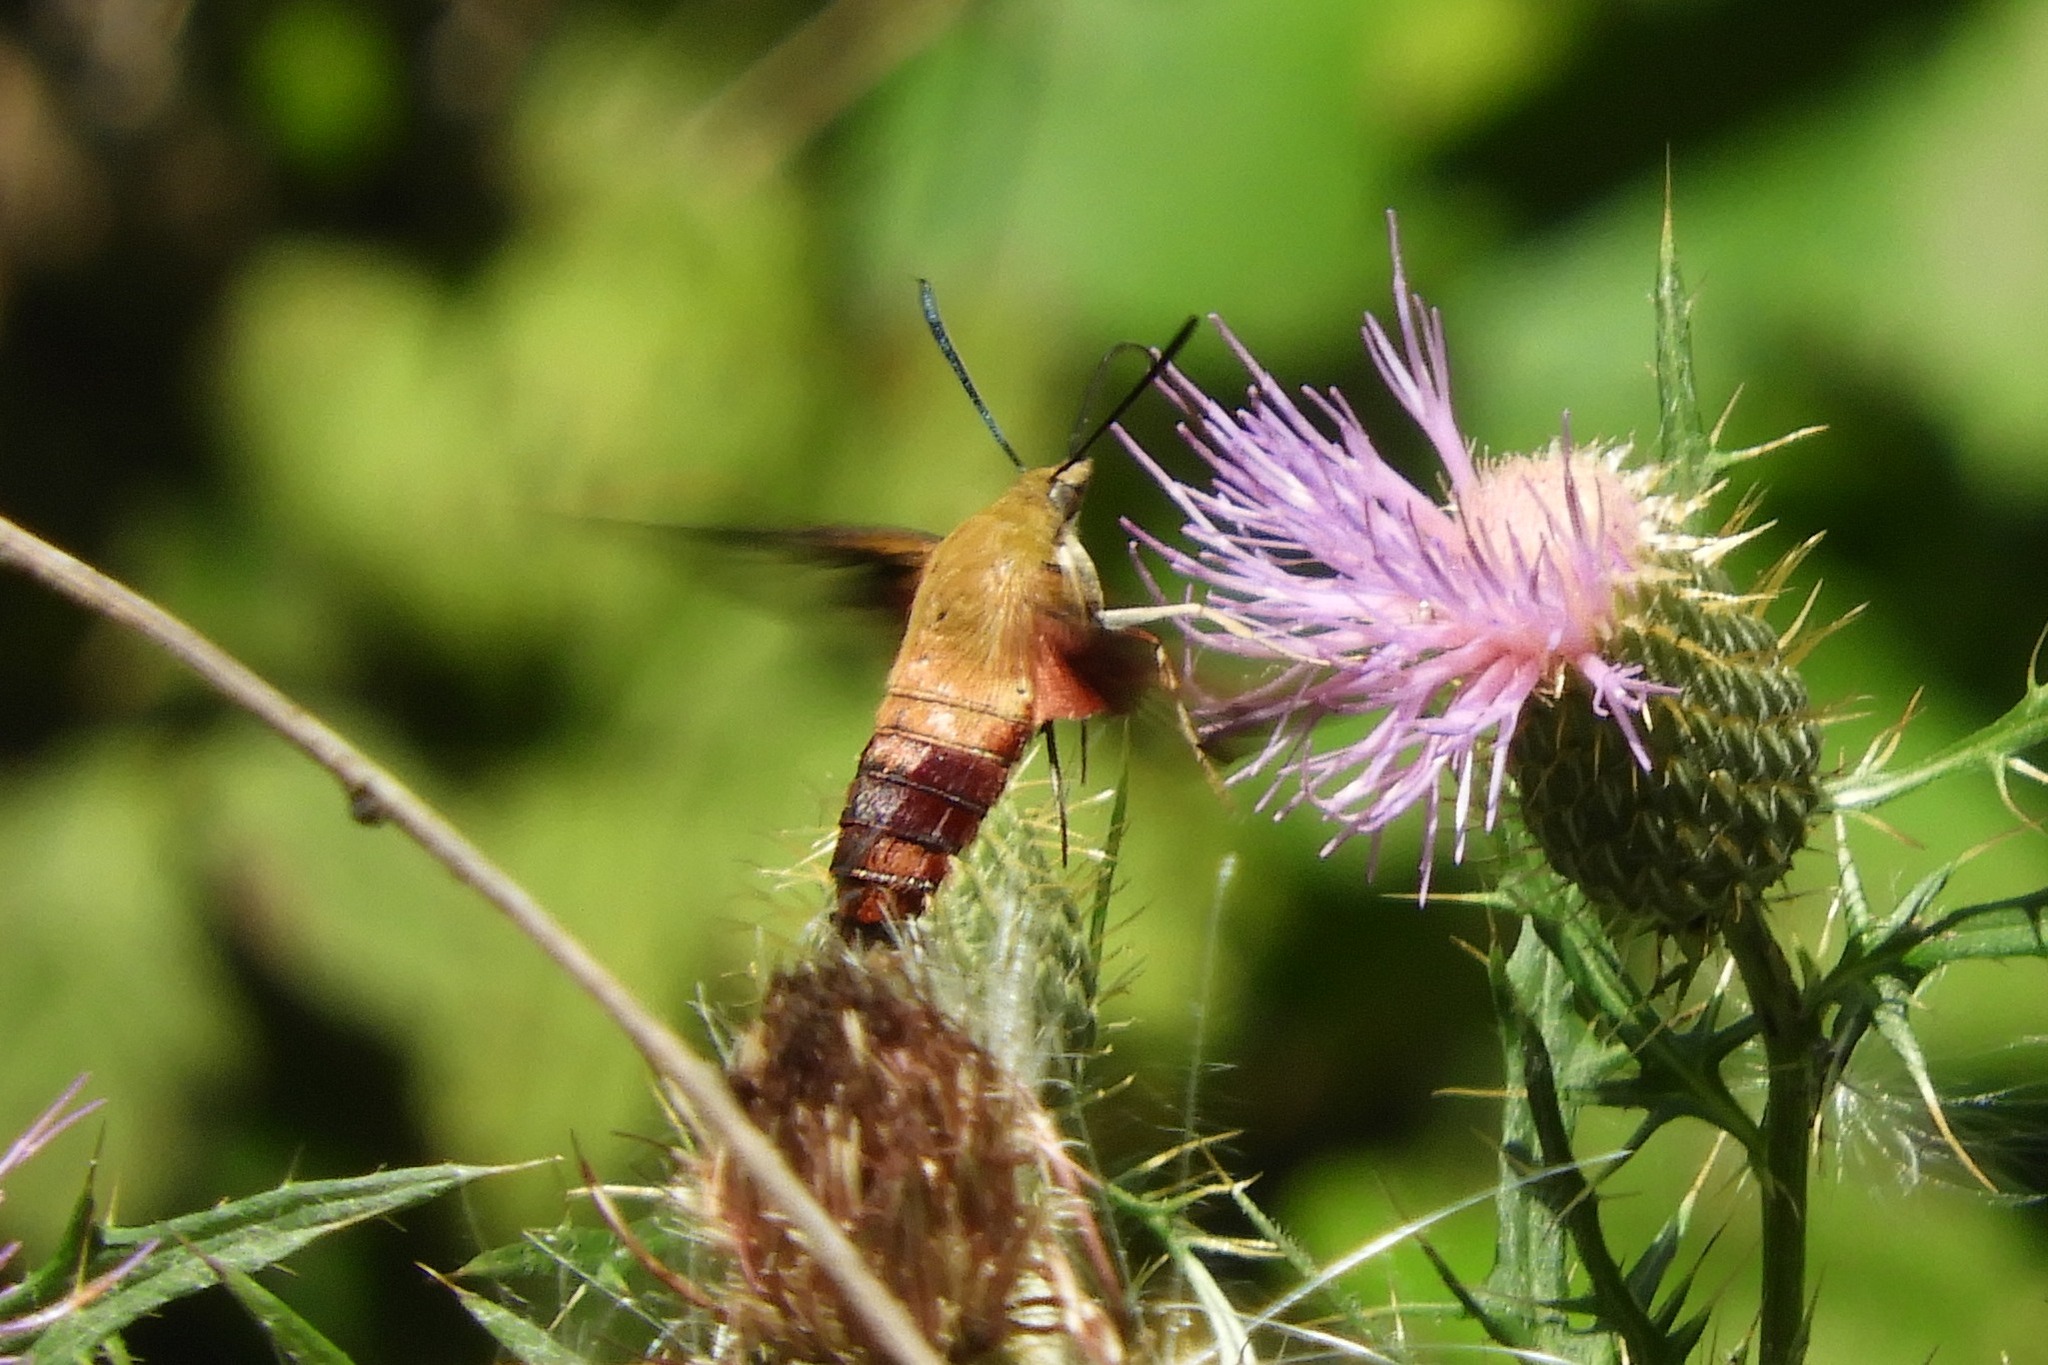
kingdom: Animalia
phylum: Arthropoda
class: Insecta
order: Lepidoptera
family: Sphingidae
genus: Hemaris
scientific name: Hemaris thysbe
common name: Common clear-wing
